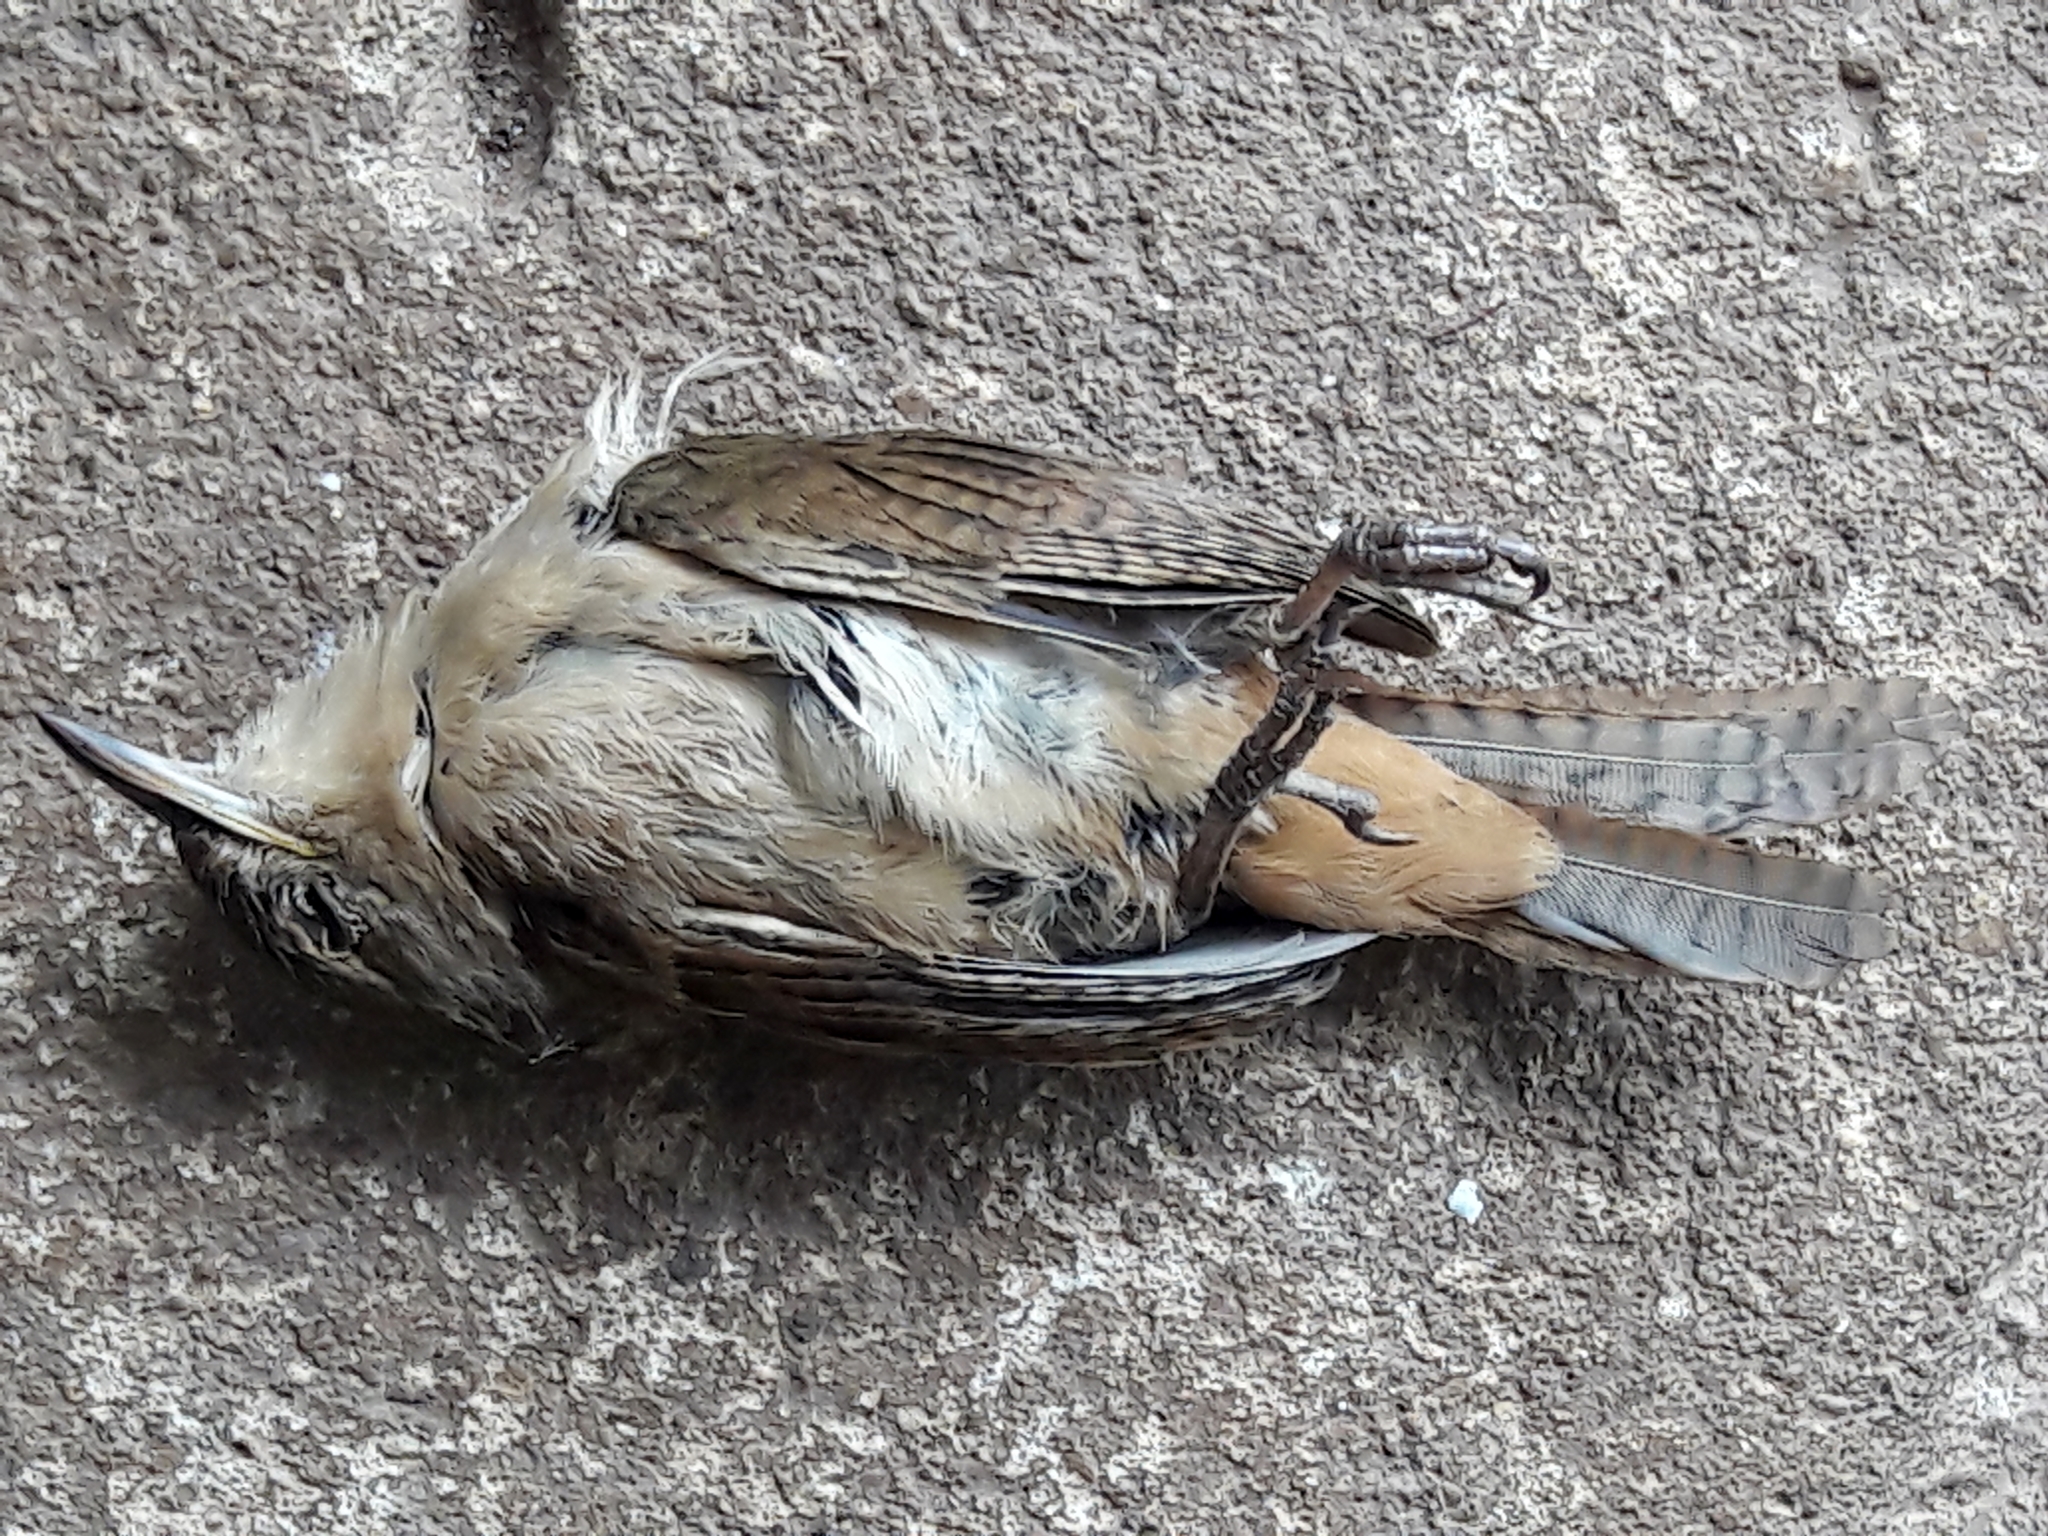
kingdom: Animalia
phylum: Chordata
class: Aves
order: Passeriformes
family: Troglodytidae
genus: Troglodytes
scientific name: Troglodytes aedon
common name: House wren
